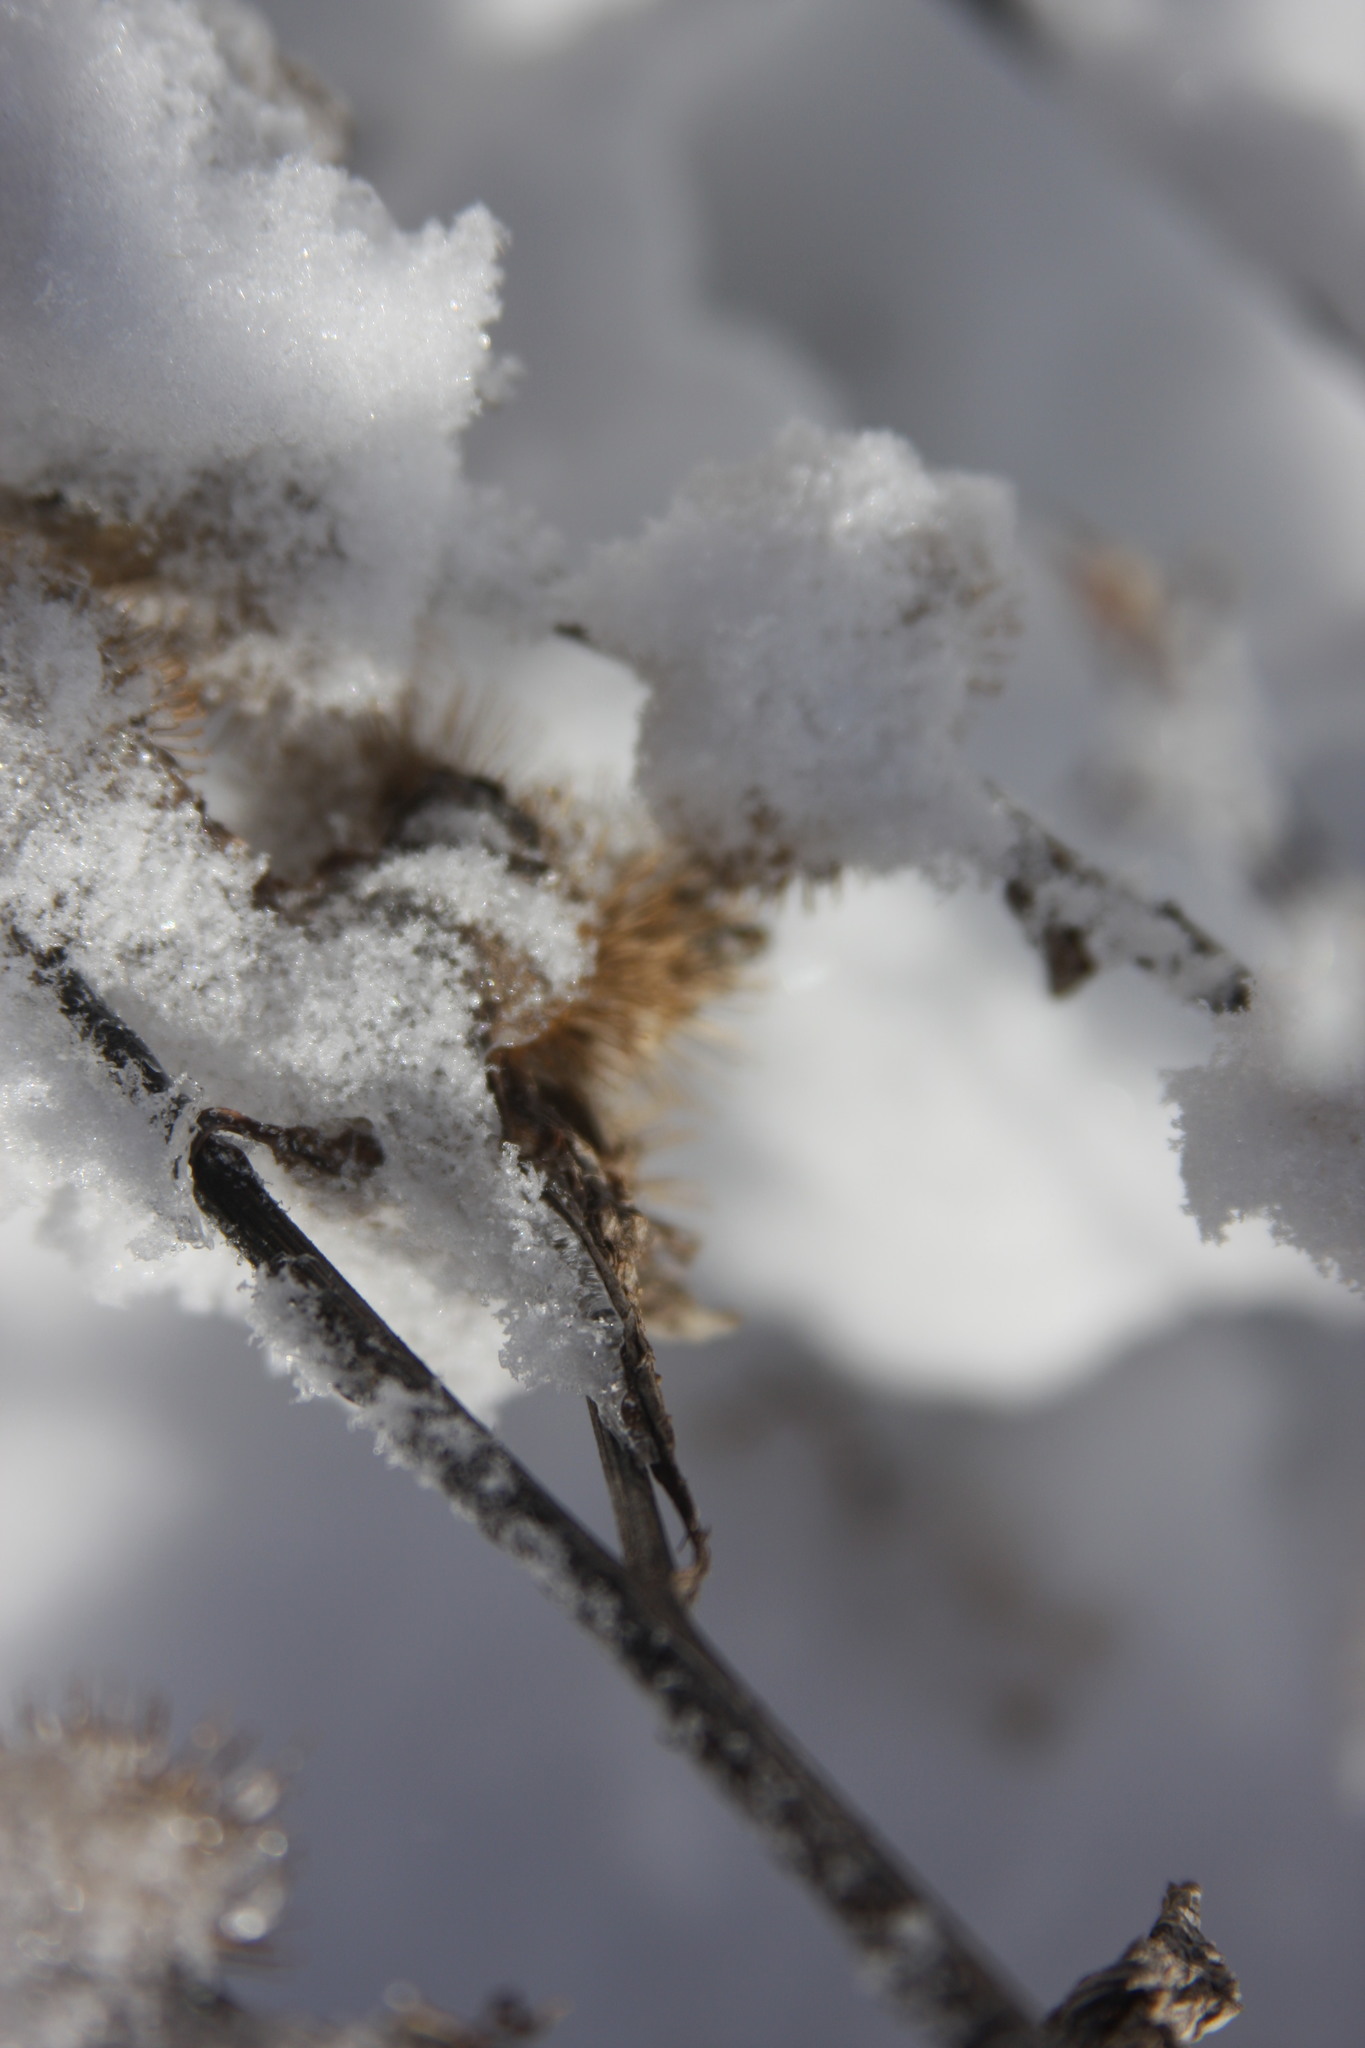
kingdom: Plantae
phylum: Tracheophyta
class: Magnoliopsida
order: Asterales
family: Asteraceae
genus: Arctium
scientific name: Arctium lappa
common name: Greater burdock
